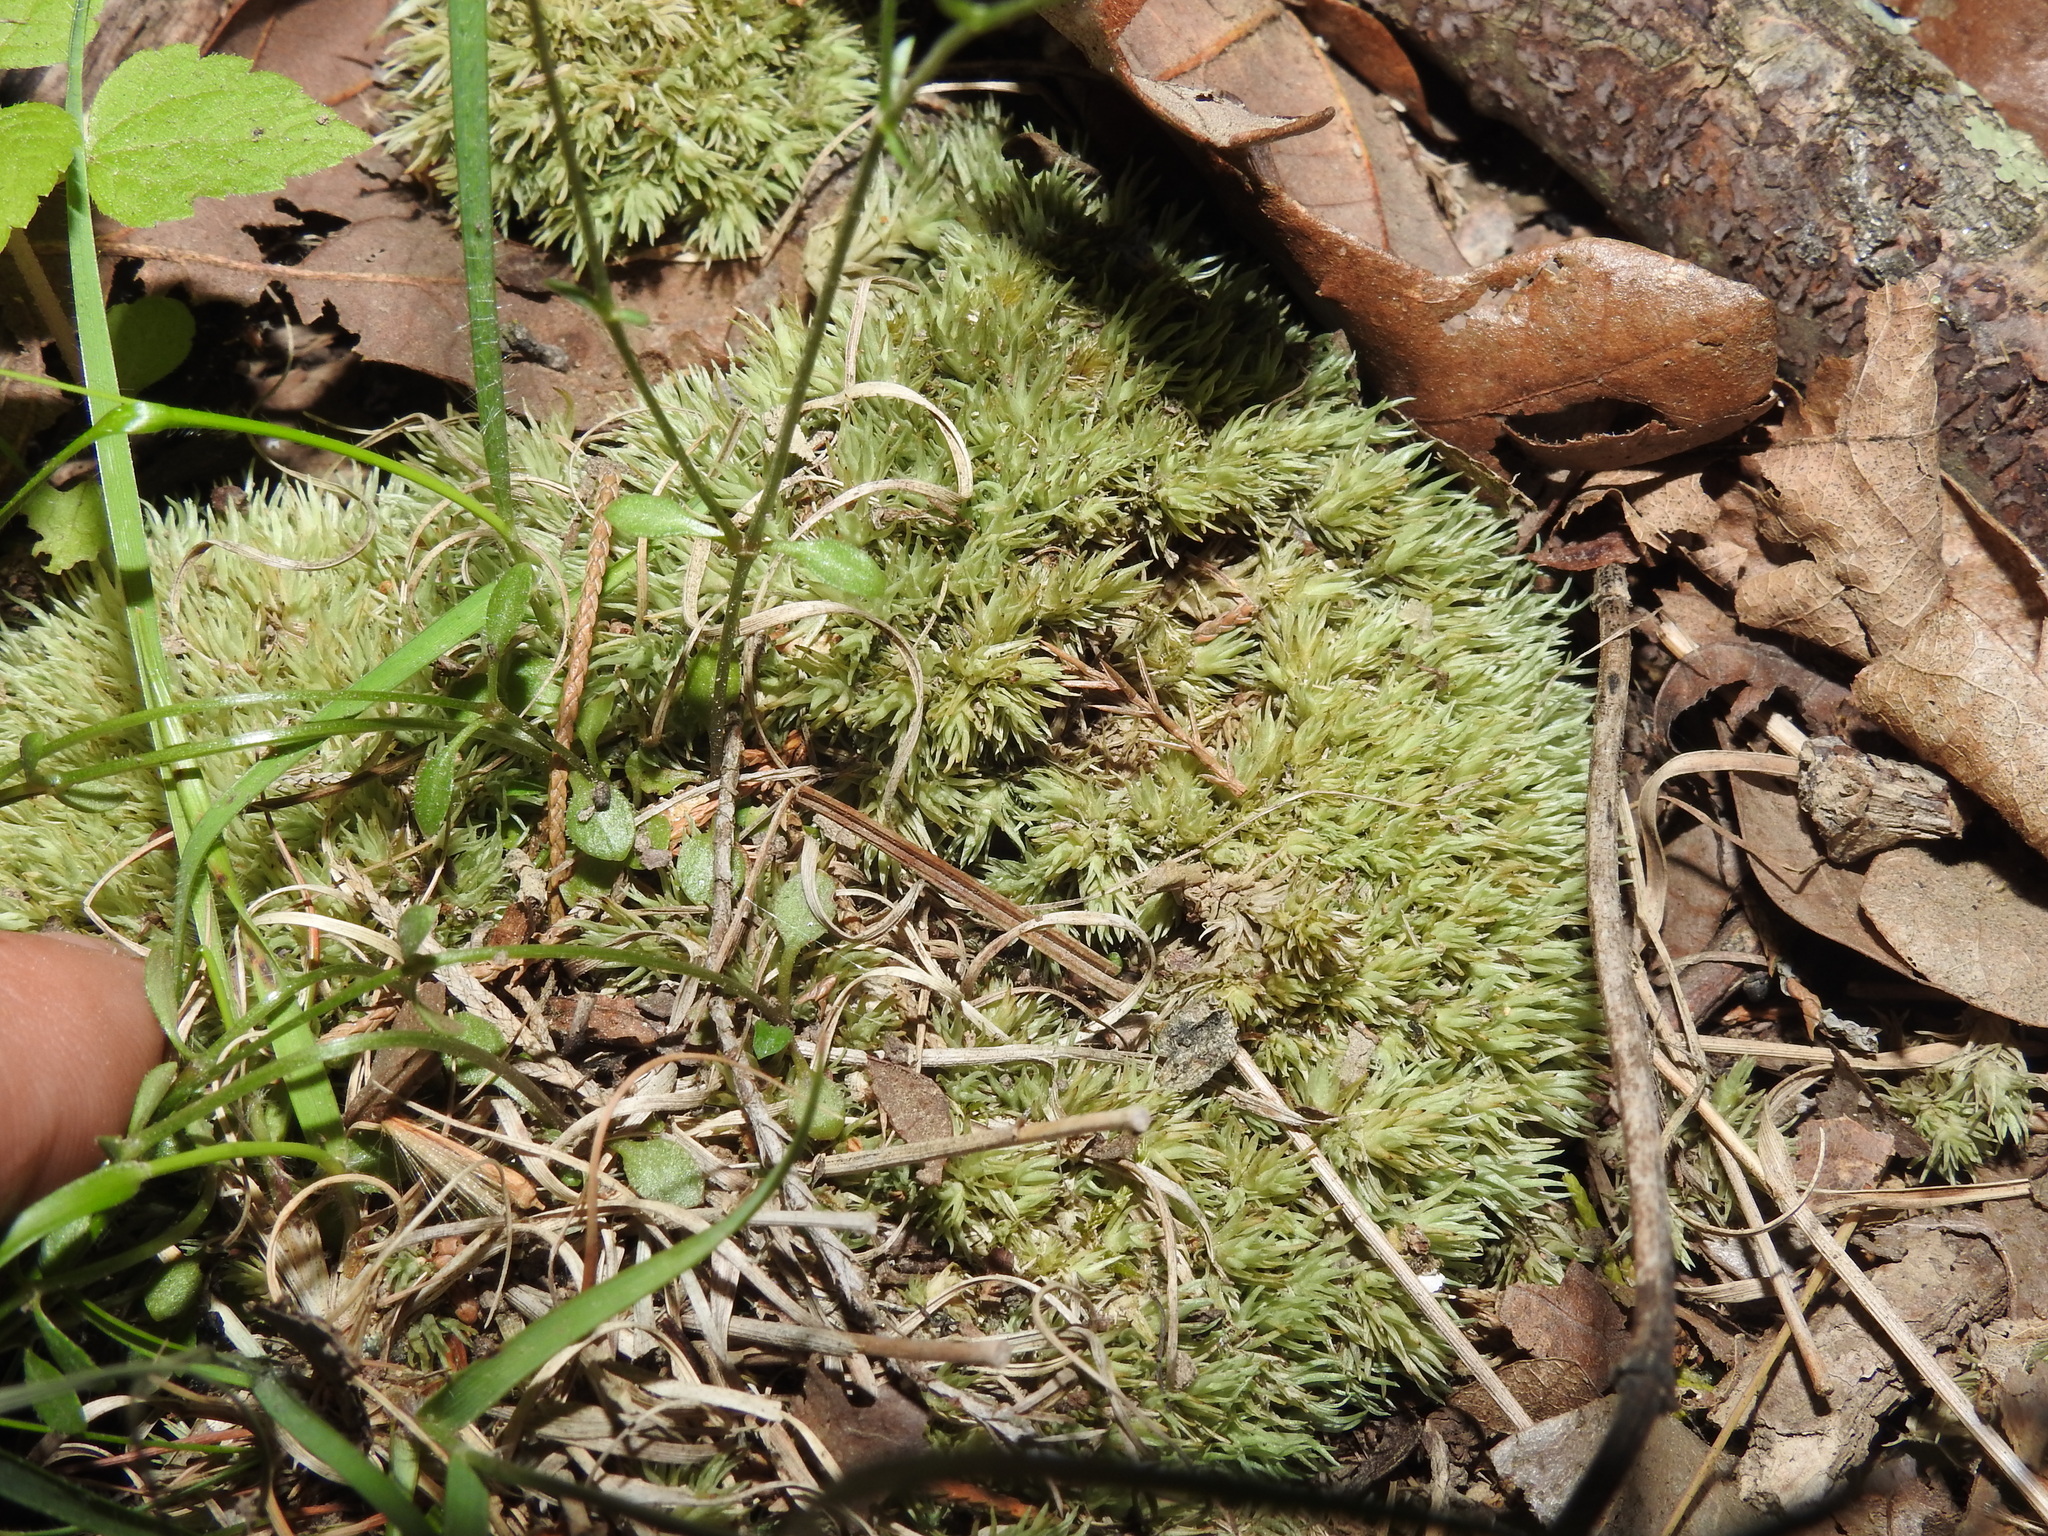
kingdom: Plantae
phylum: Bryophyta
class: Bryopsida
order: Dicranales
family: Leucobryaceae
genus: Leucobryum
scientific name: Leucobryum glaucum
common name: Large white-moss
